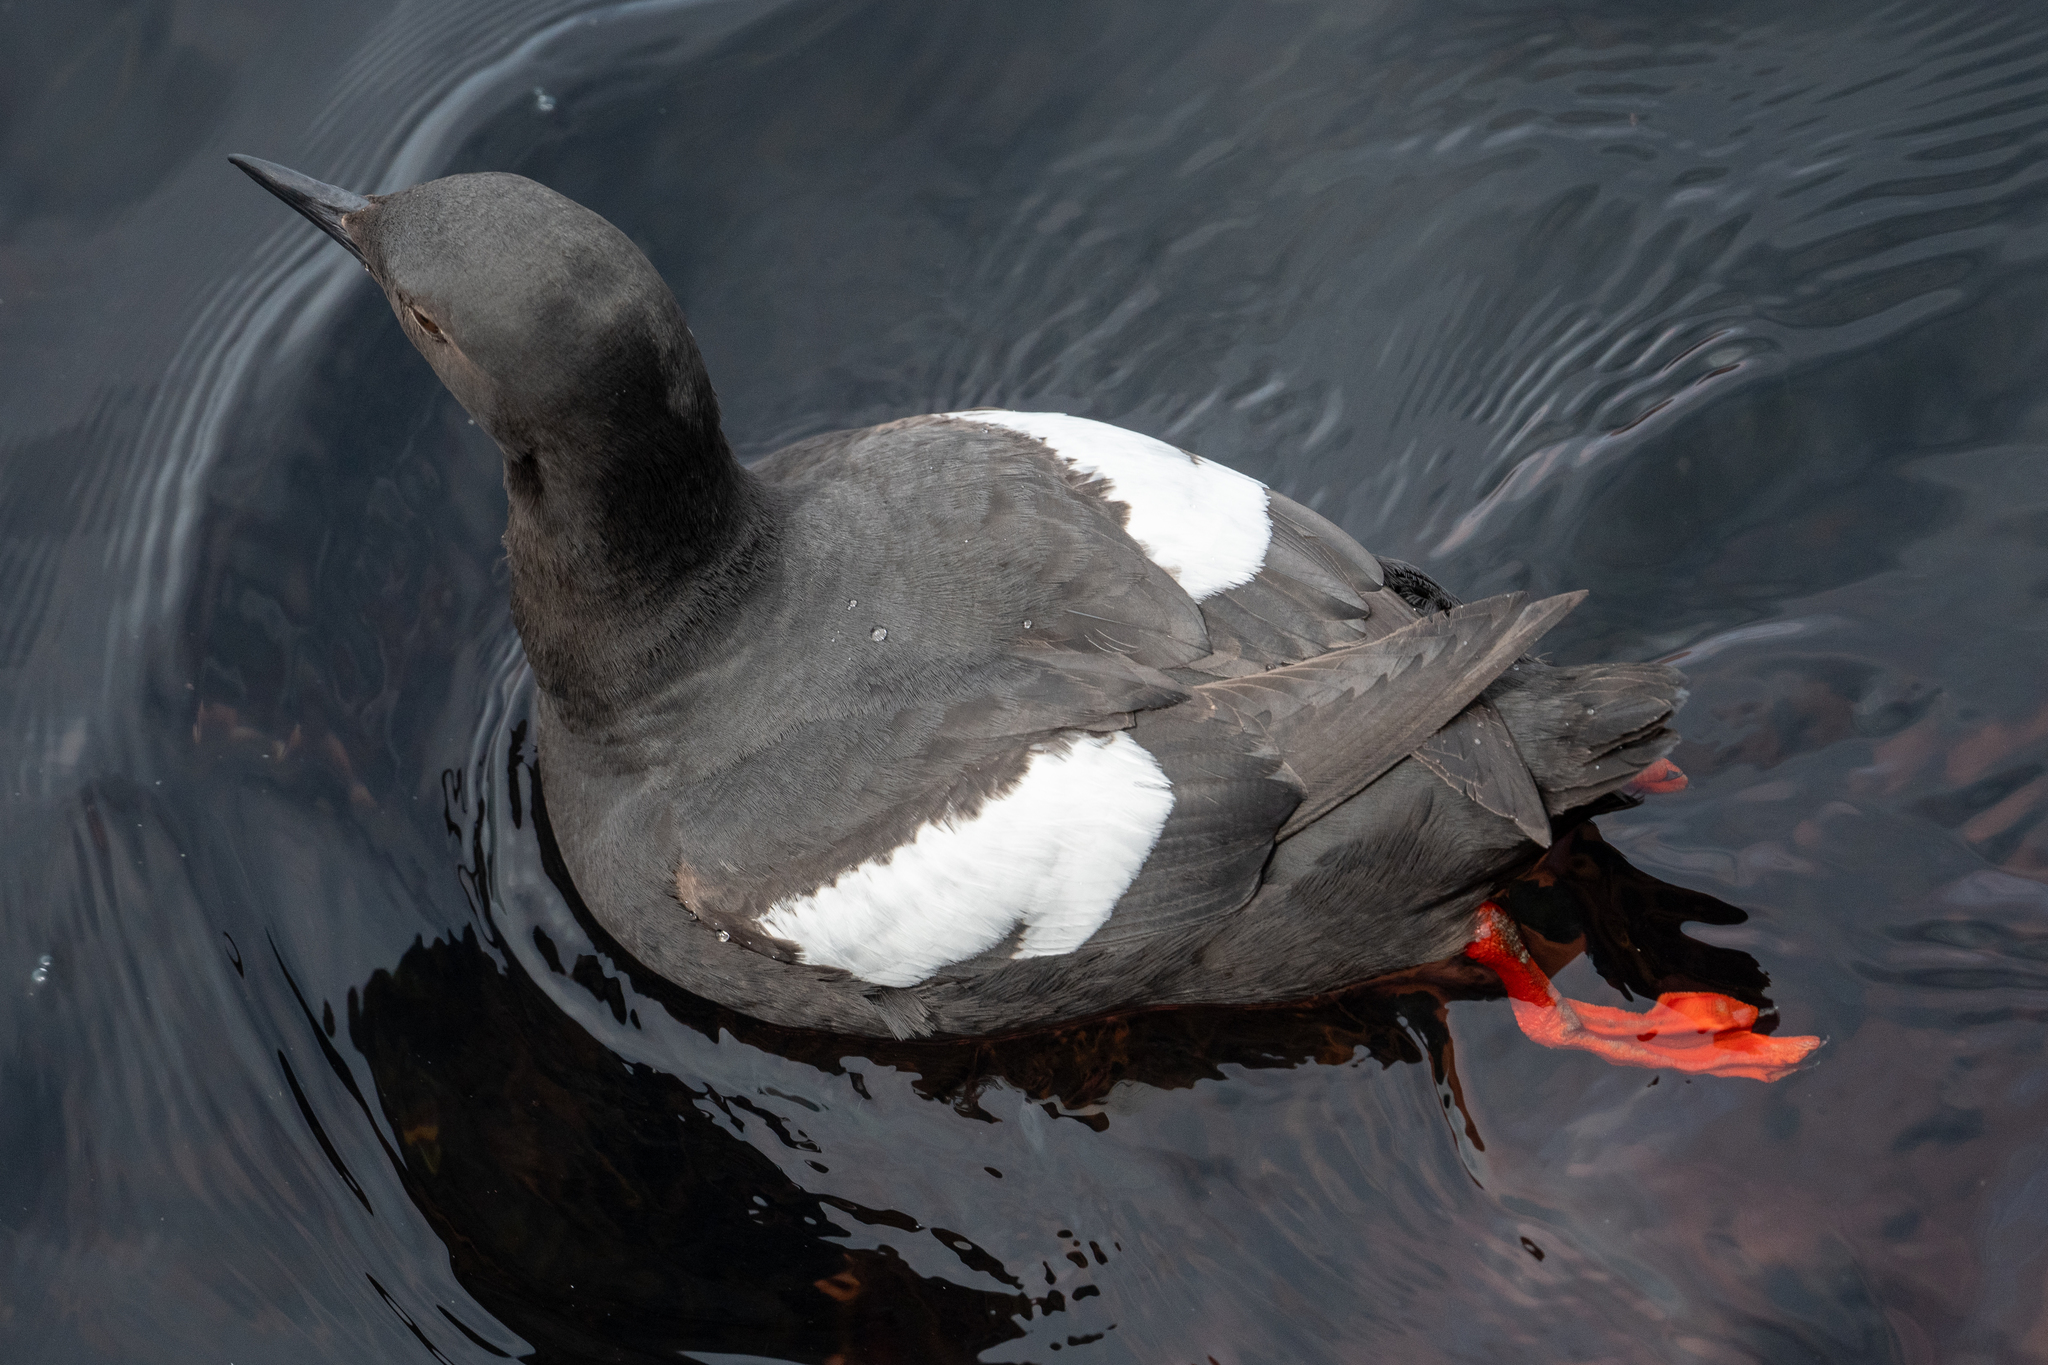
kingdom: Animalia
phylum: Chordata
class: Aves
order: Charadriiformes
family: Alcidae
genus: Cepphus
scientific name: Cepphus columba
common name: Pigeon guillemot
